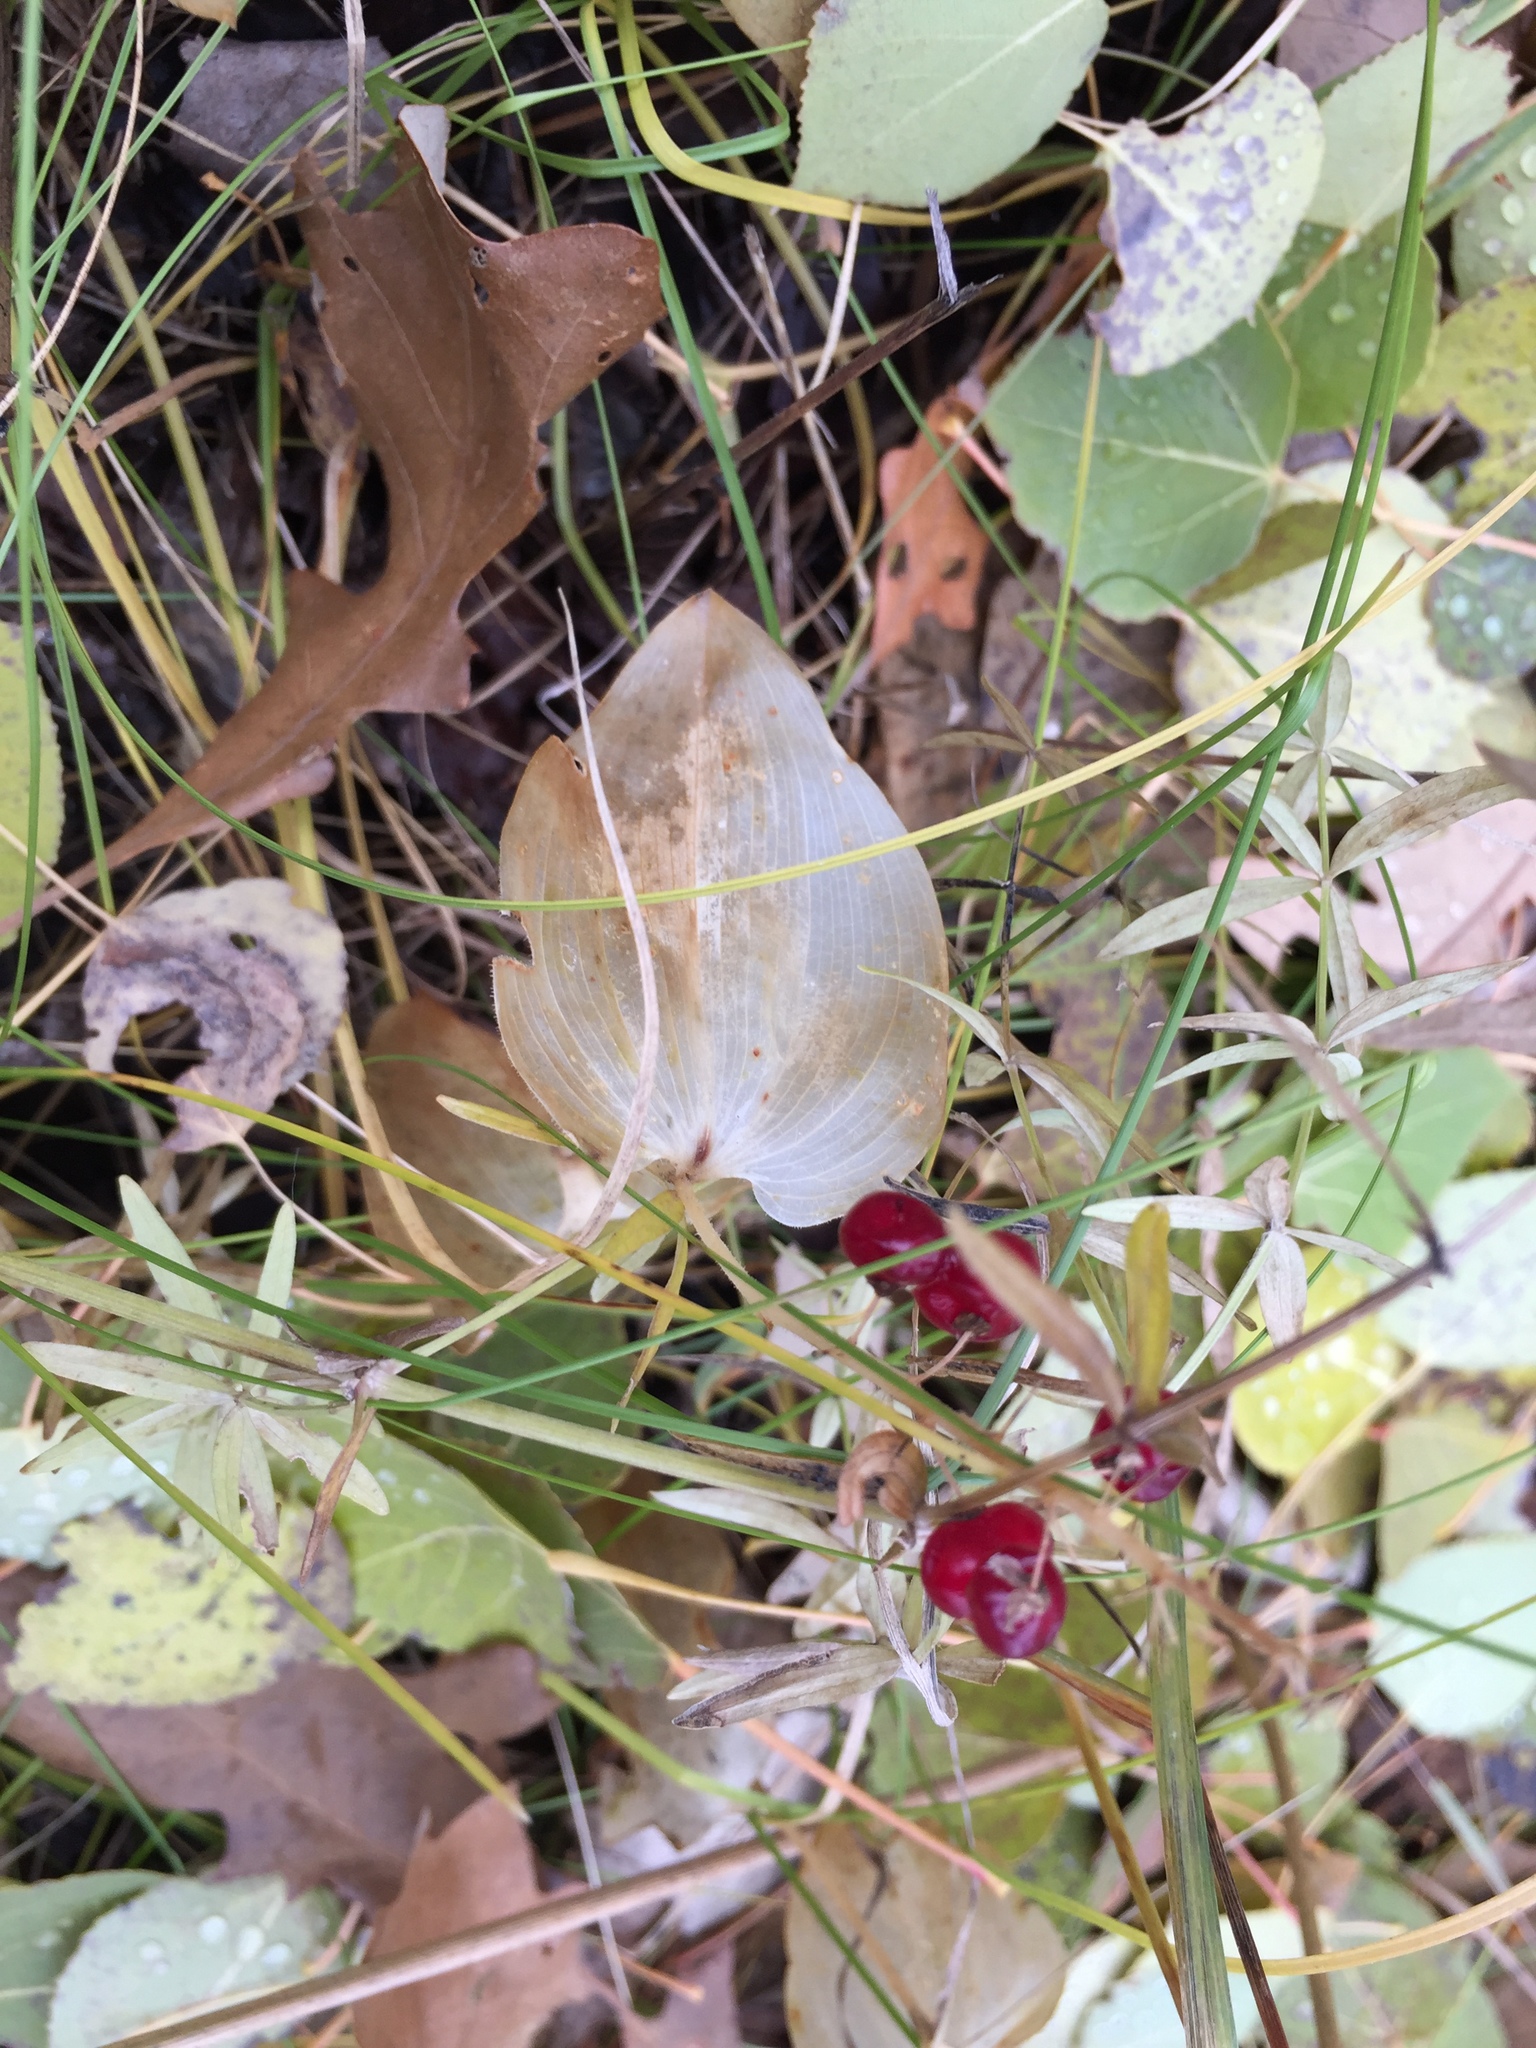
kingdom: Plantae
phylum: Tracheophyta
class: Liliopsida
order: Asparagales
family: Asparagaceae
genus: Maianthemum
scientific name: Maianthemum canadense
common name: False lily-of-the-valley
